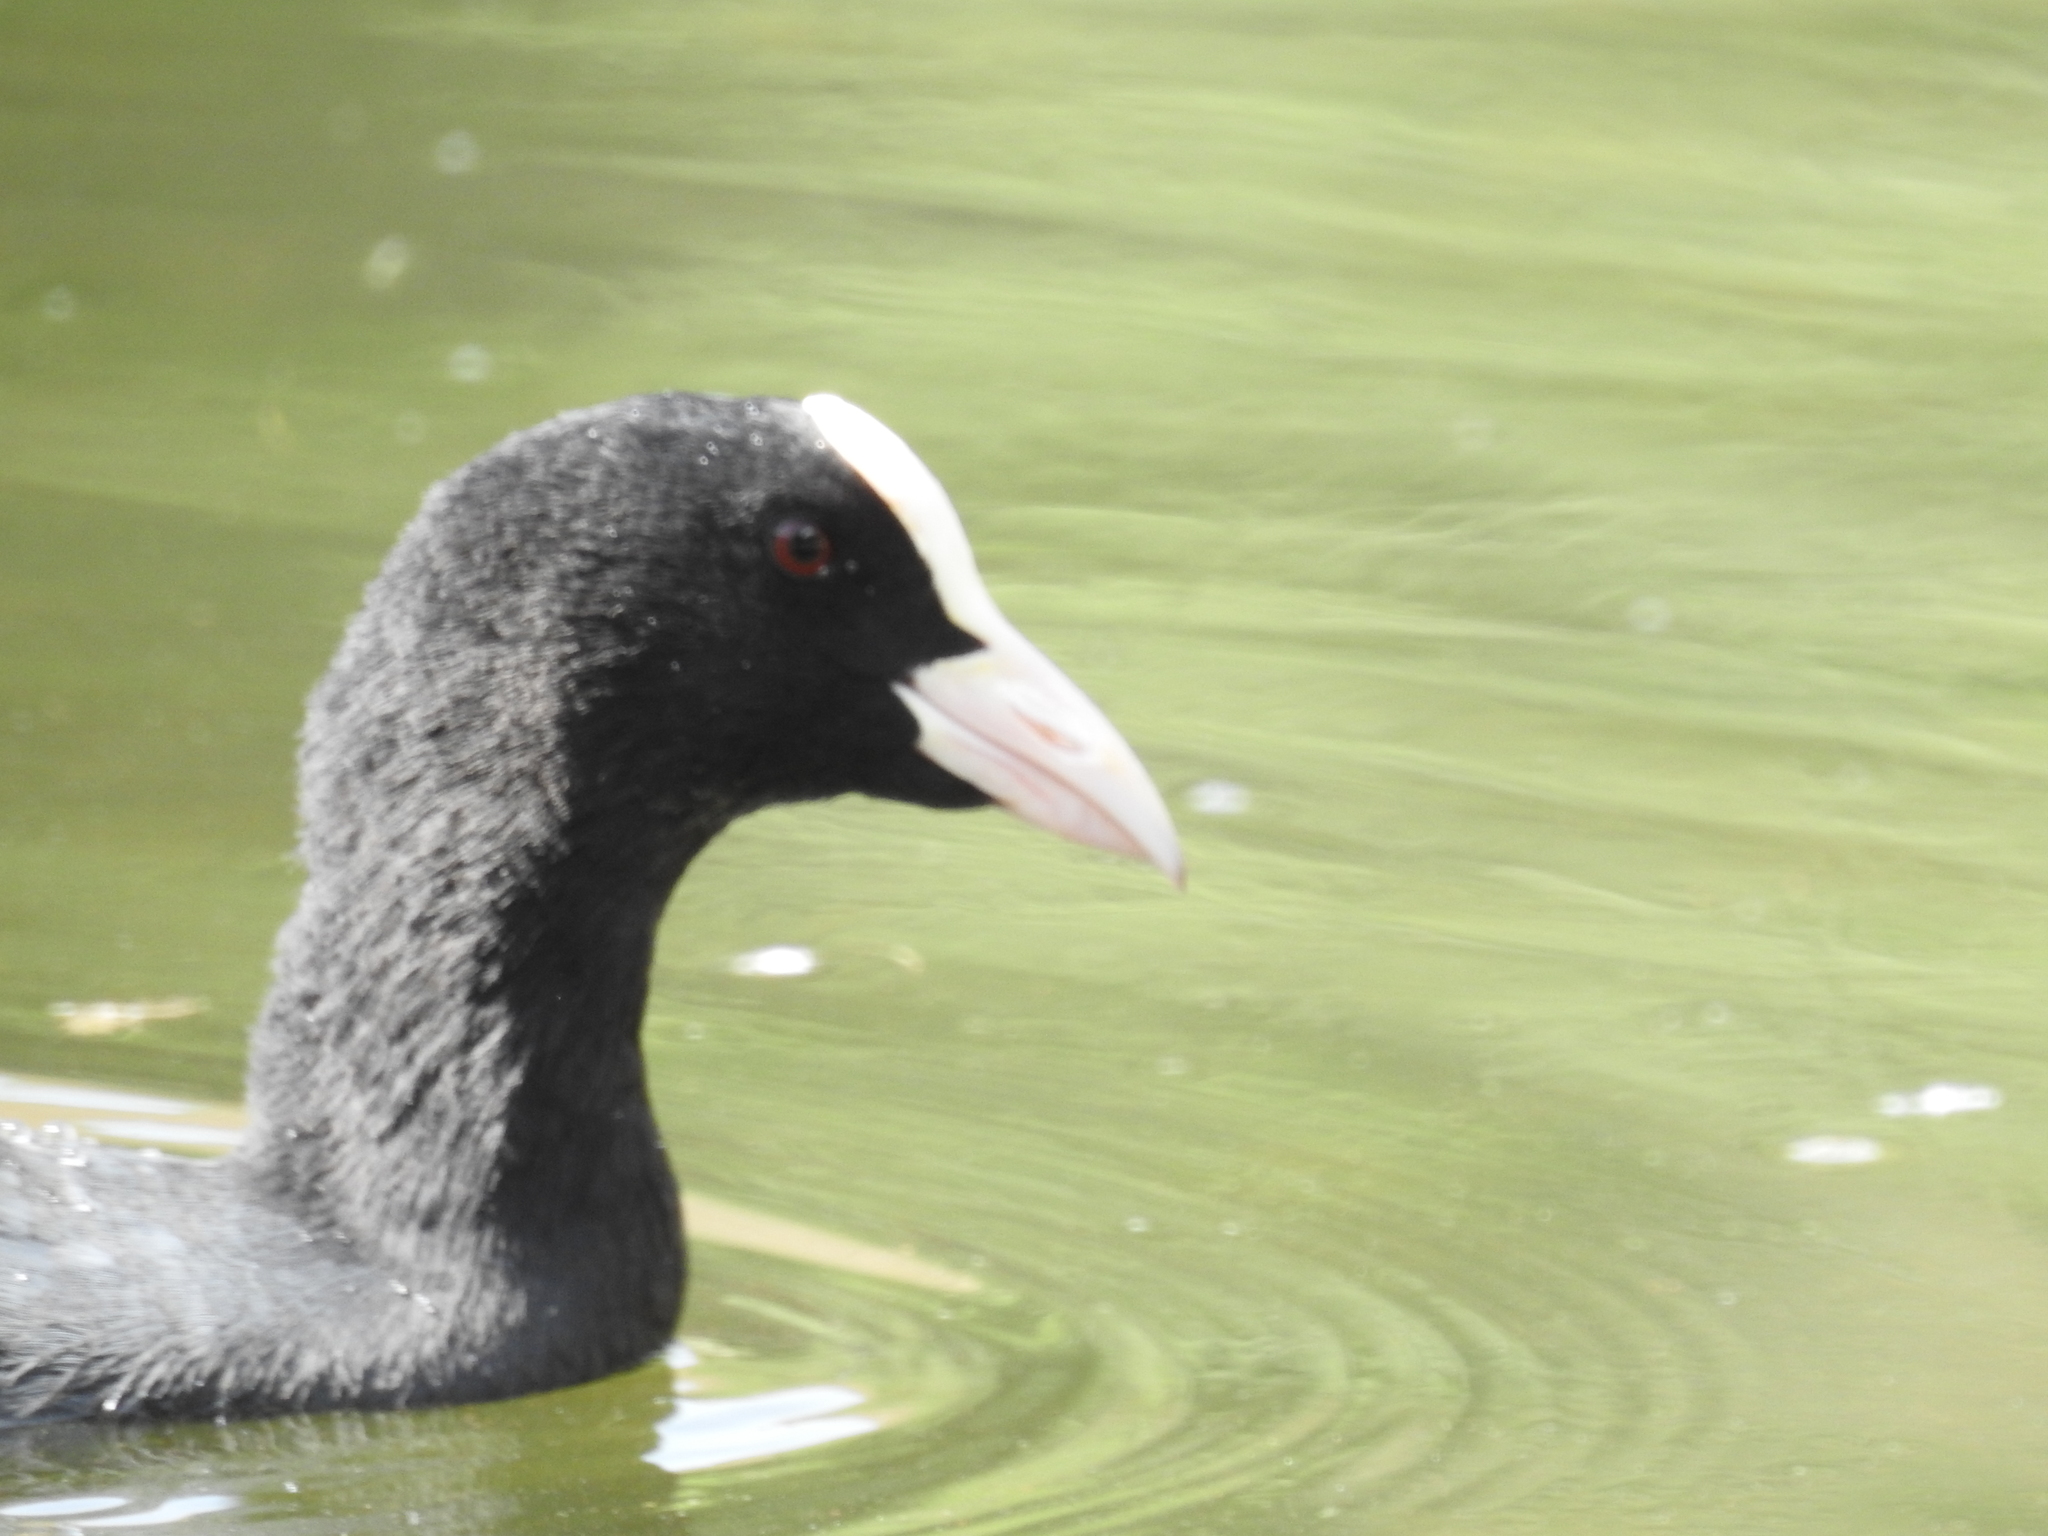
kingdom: Animalia
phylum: Chordata
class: Aves
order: Gruiformes
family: Rallidae
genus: Fulica
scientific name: Fulica atra
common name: Eurasian coot
